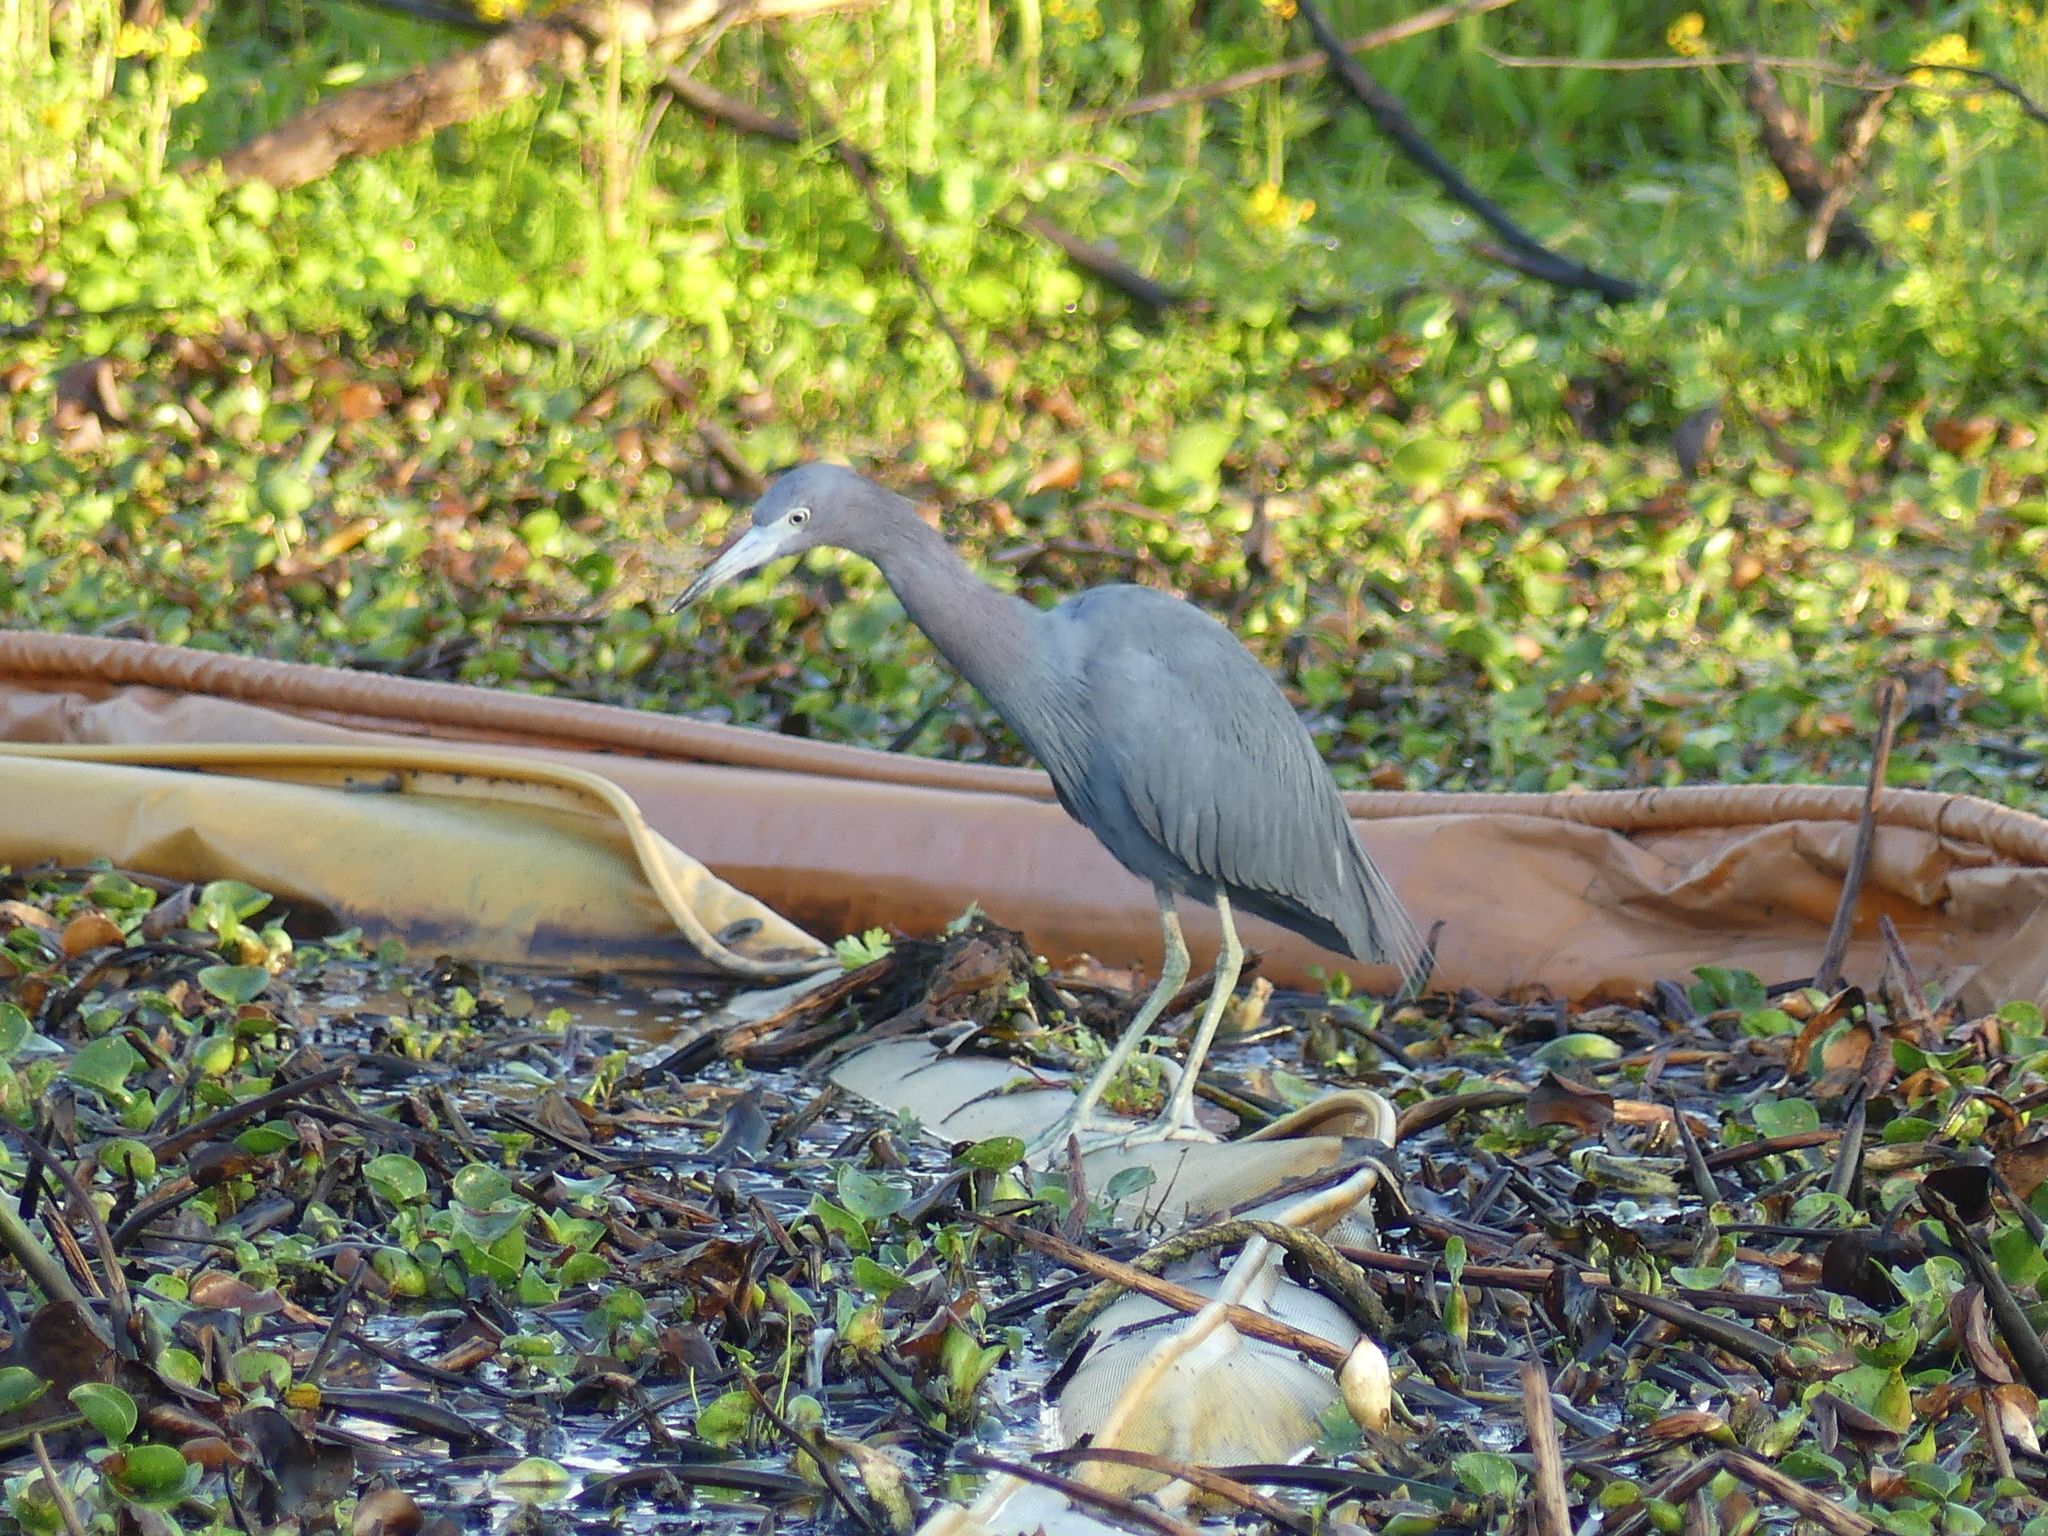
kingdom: Animalia
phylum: Chordata
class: Aves
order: Pelecaniformes
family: Ardeidae
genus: Egretta
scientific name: Egretta caerulea
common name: Little blue heron
